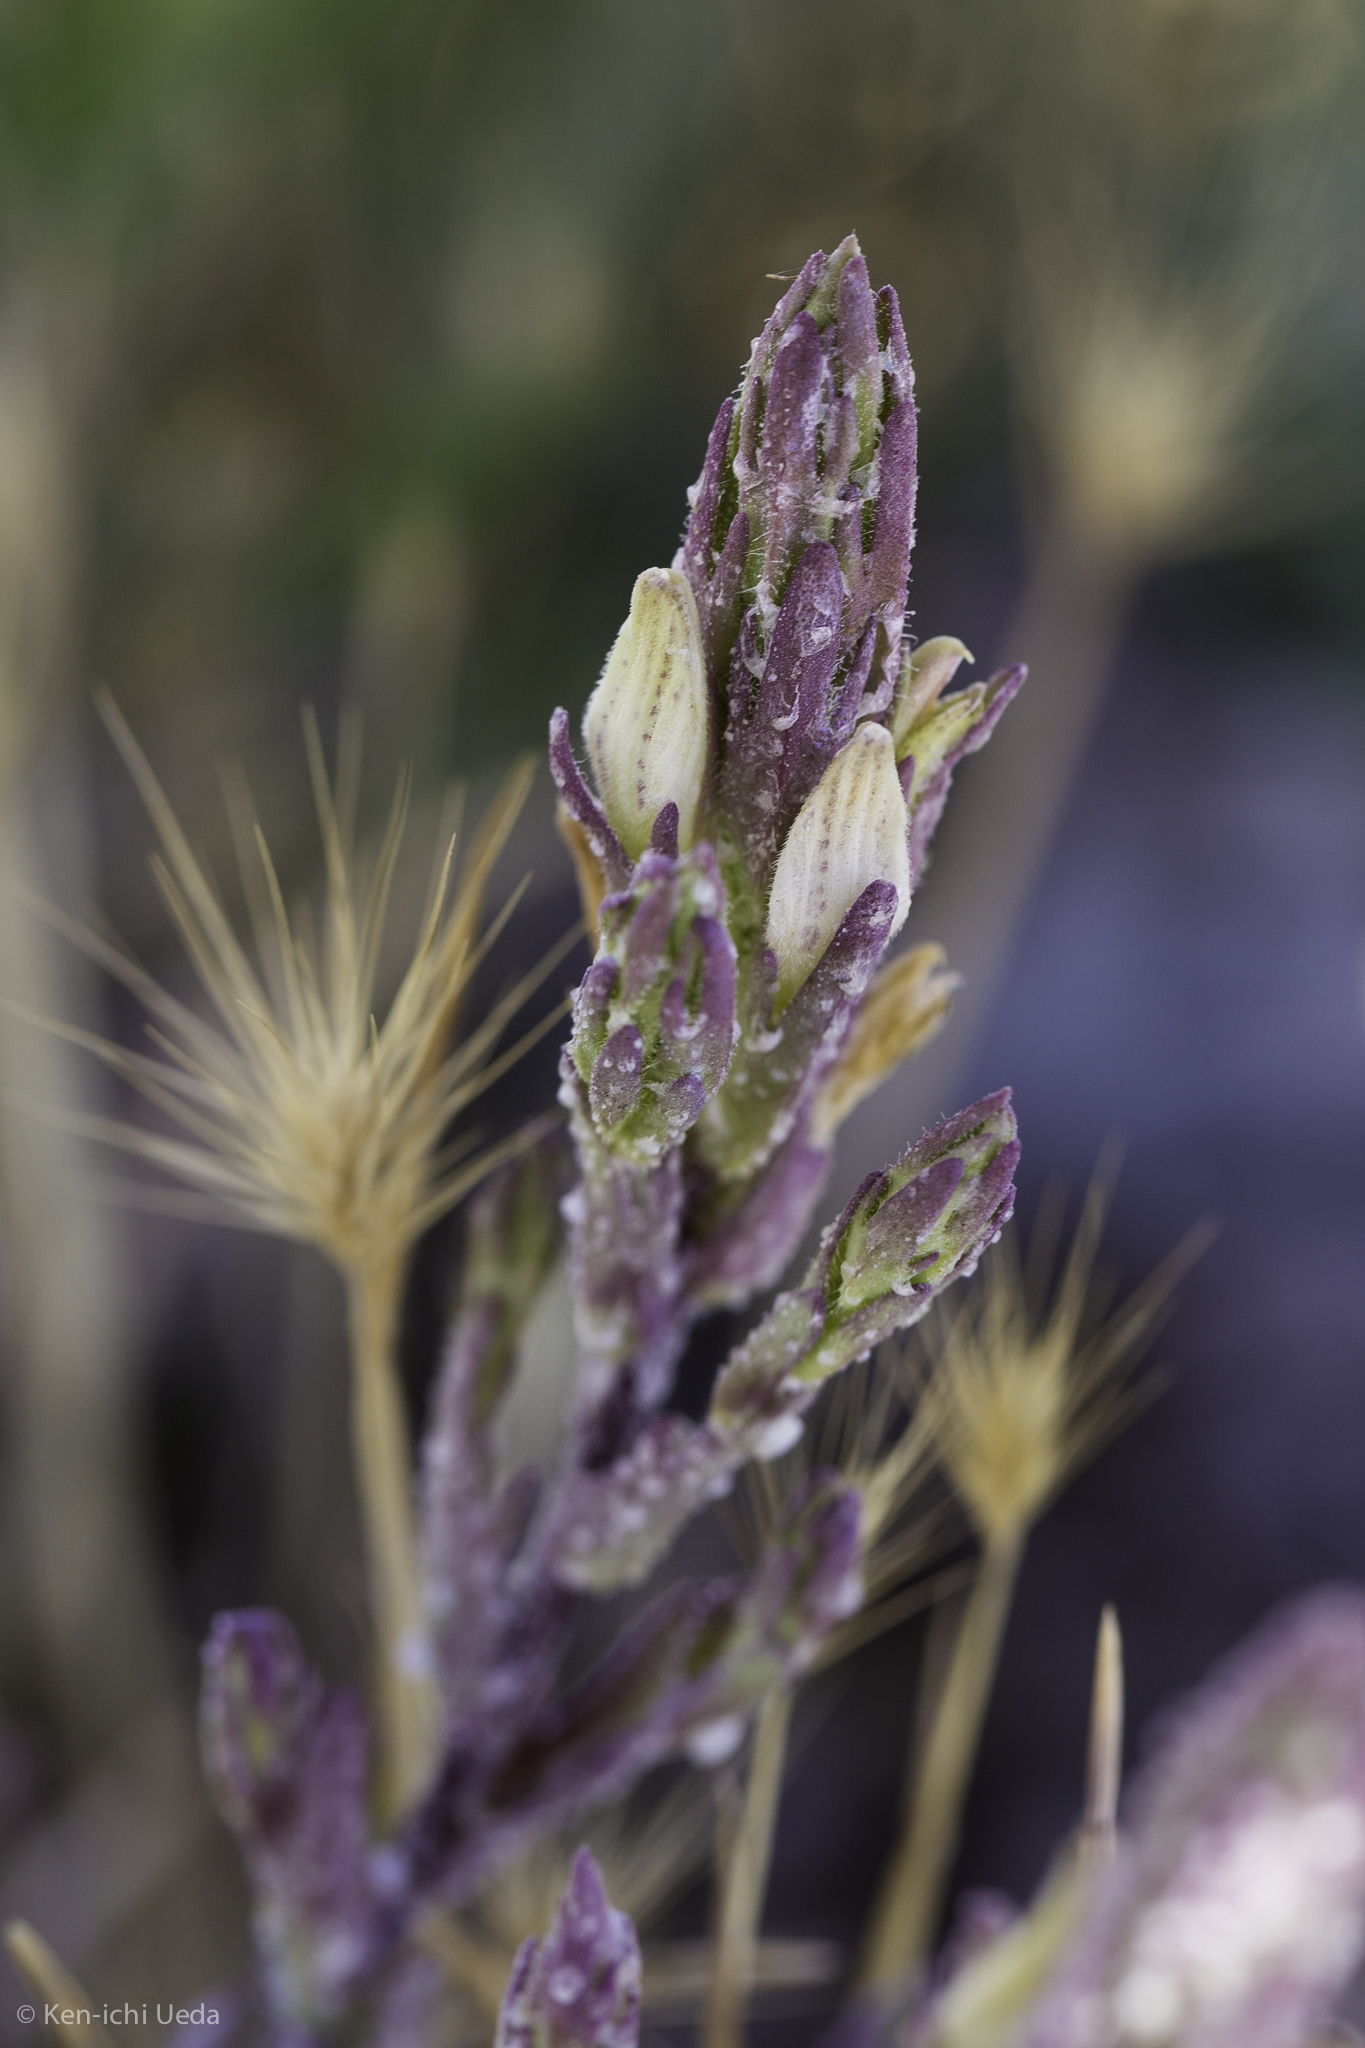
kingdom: Plantae
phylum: Tracheophyta
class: Magnoliopsida
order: Lamiales
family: Orobanchaceae
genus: Chloropyron
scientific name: Chloropyron palmatum
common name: Palmate salty bird's-beak
